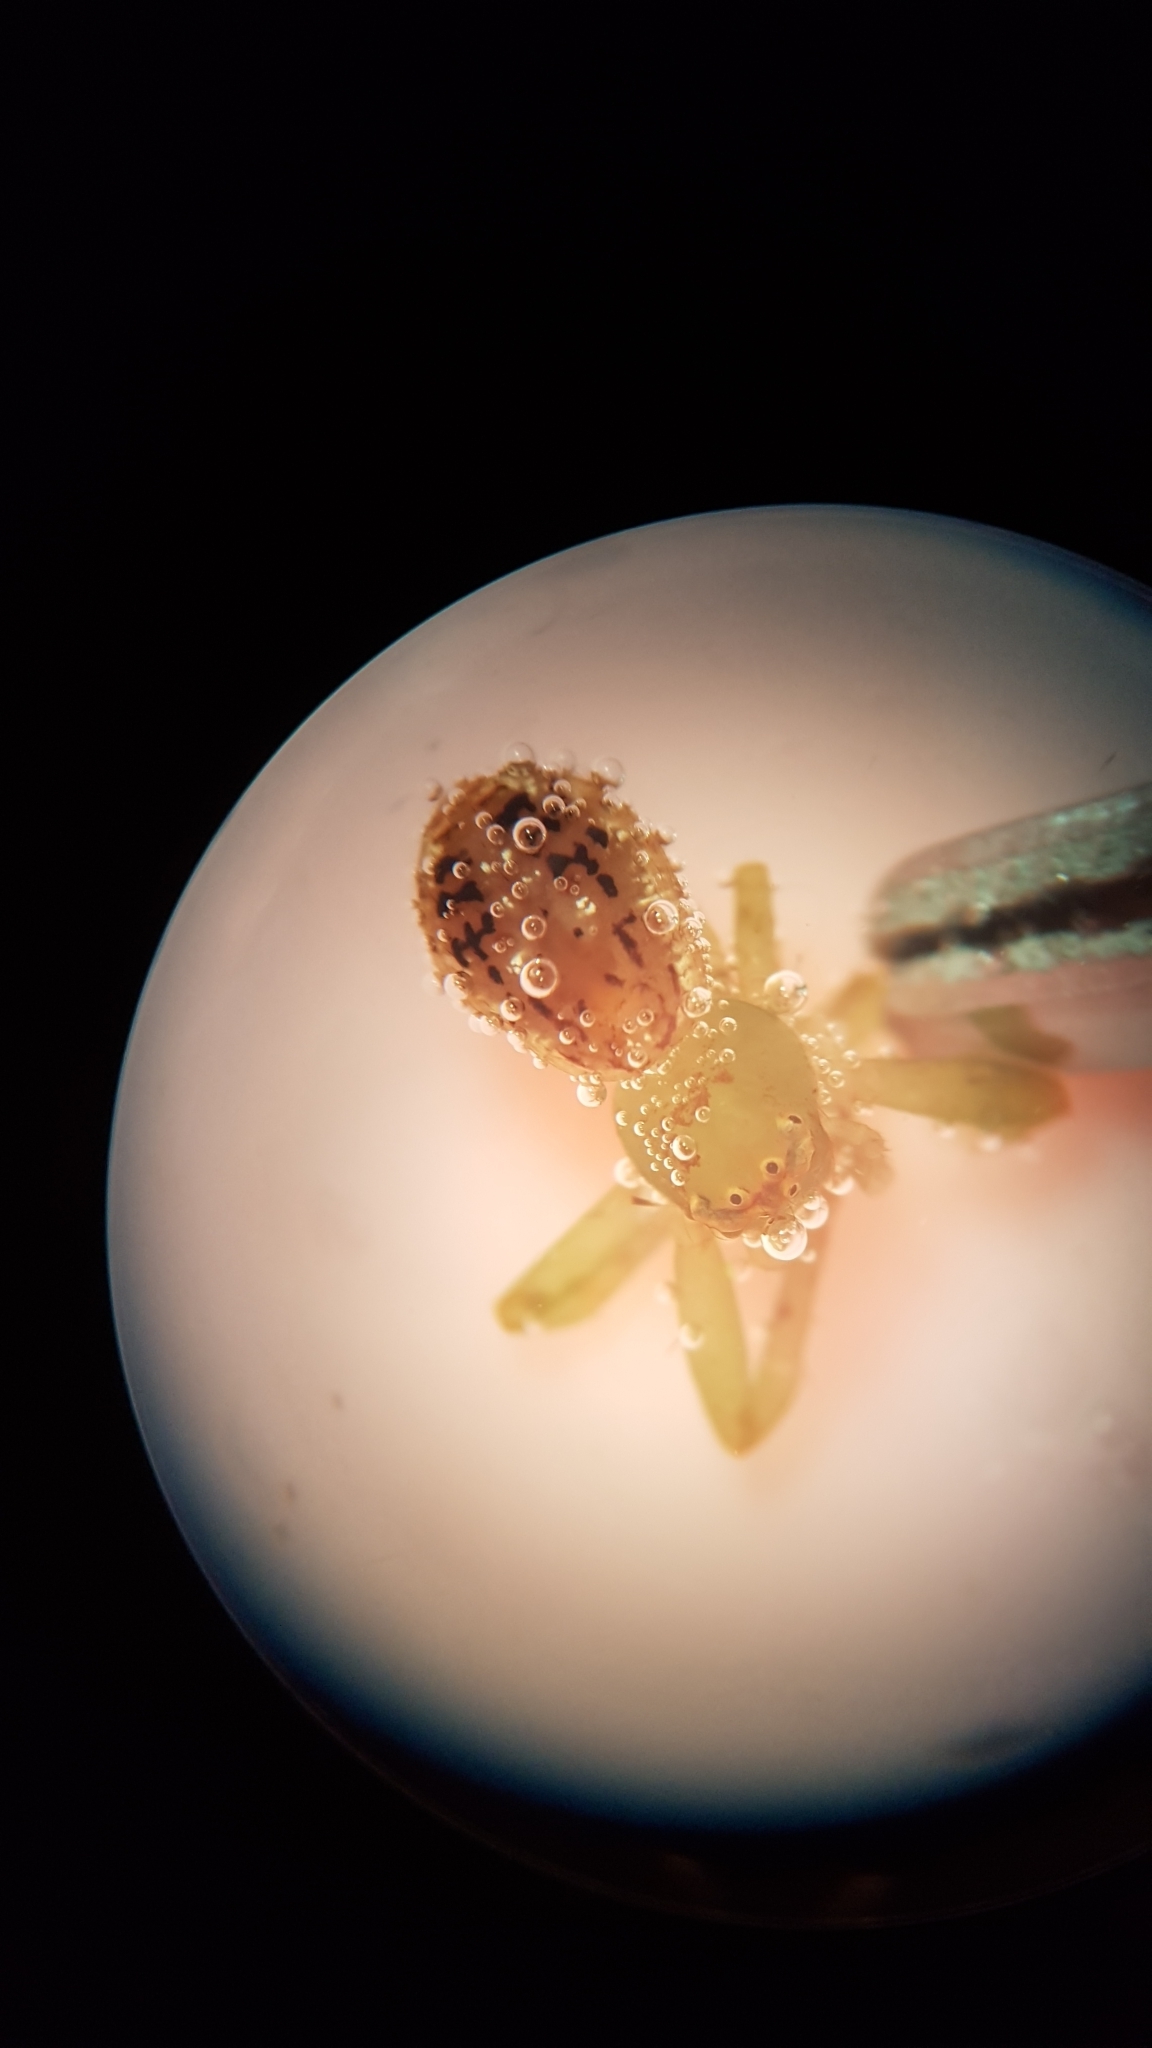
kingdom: Animalia
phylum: Arthropoda
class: Arachnida
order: Araneae
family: Thomisidae
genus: Diaea
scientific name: Diaea ambara
